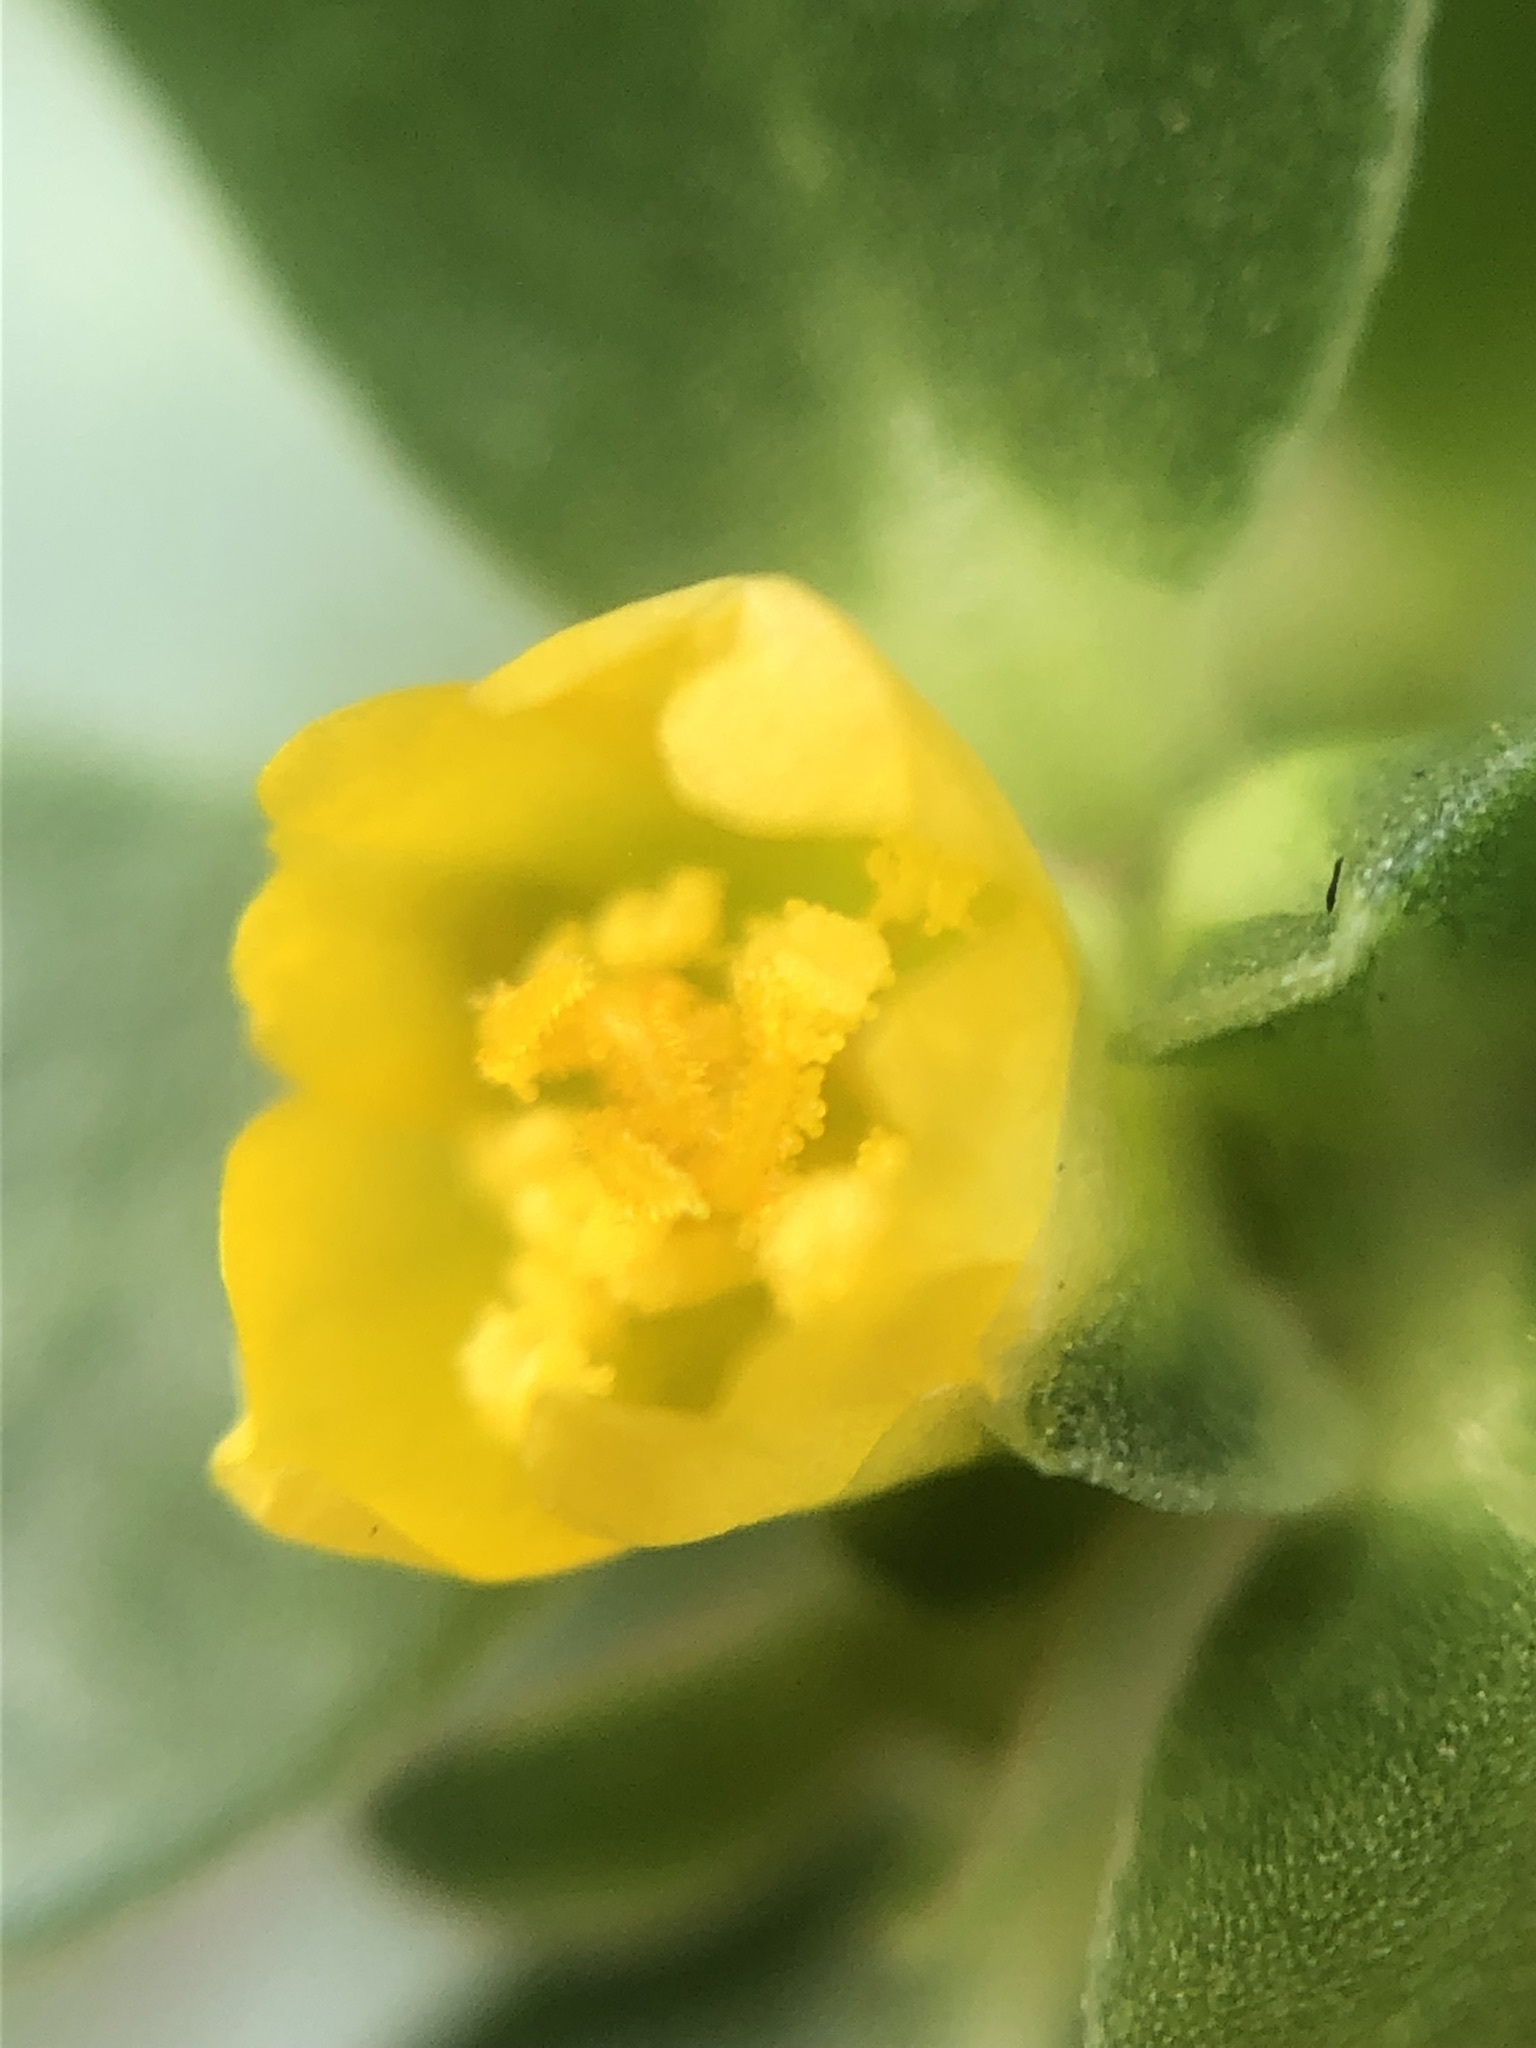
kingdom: Plantae
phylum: Tracheophyta
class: Magnoliopsida
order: Caryophyllales
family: Portulacaceae
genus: Portulaca
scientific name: Portulaca oleracea
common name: Common purslane
